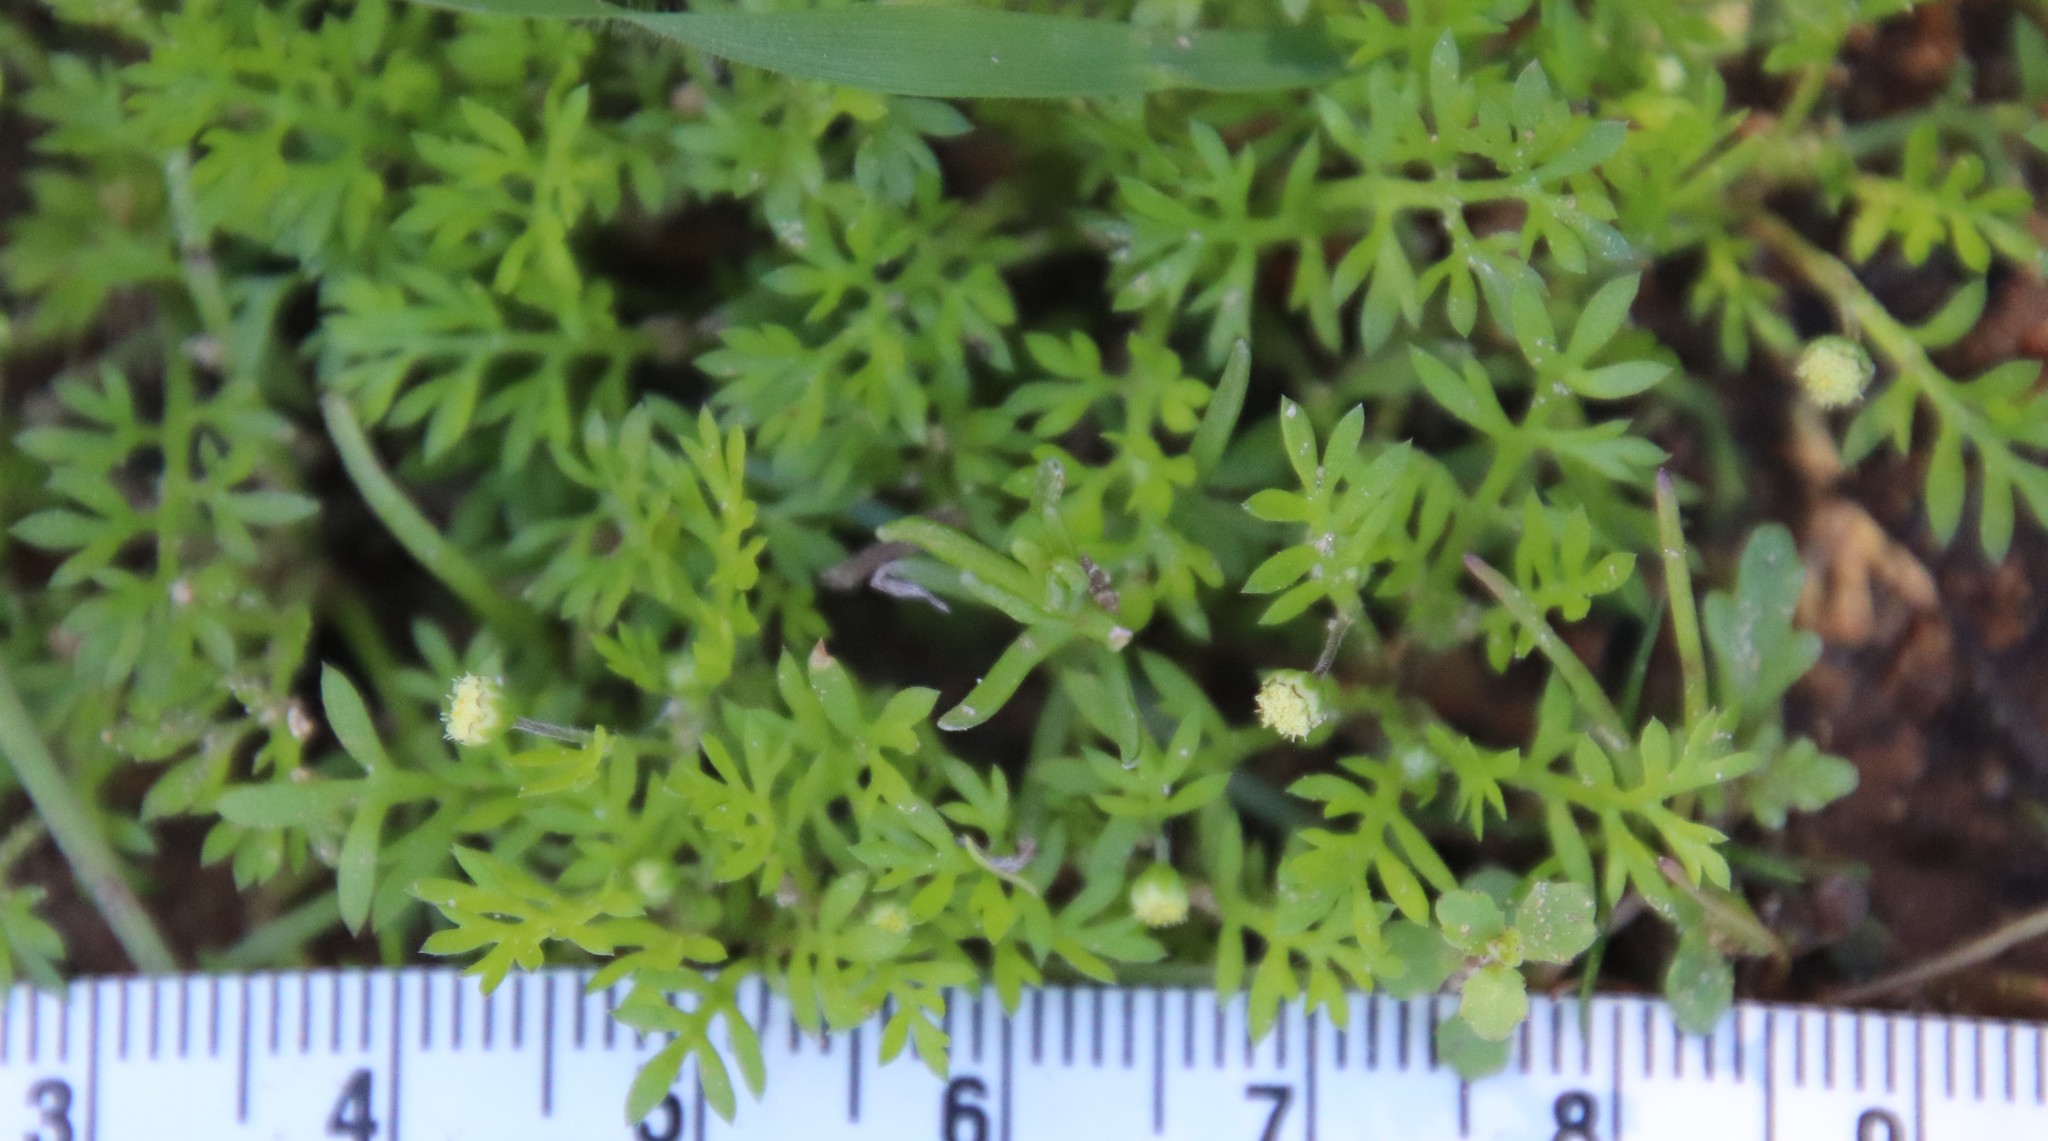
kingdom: Plantae
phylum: Tracheophyta
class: Magnoliopsida
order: Asterales
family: Asteraceae
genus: Cotula
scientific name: Cotula australis
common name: Australian waterbuttons
